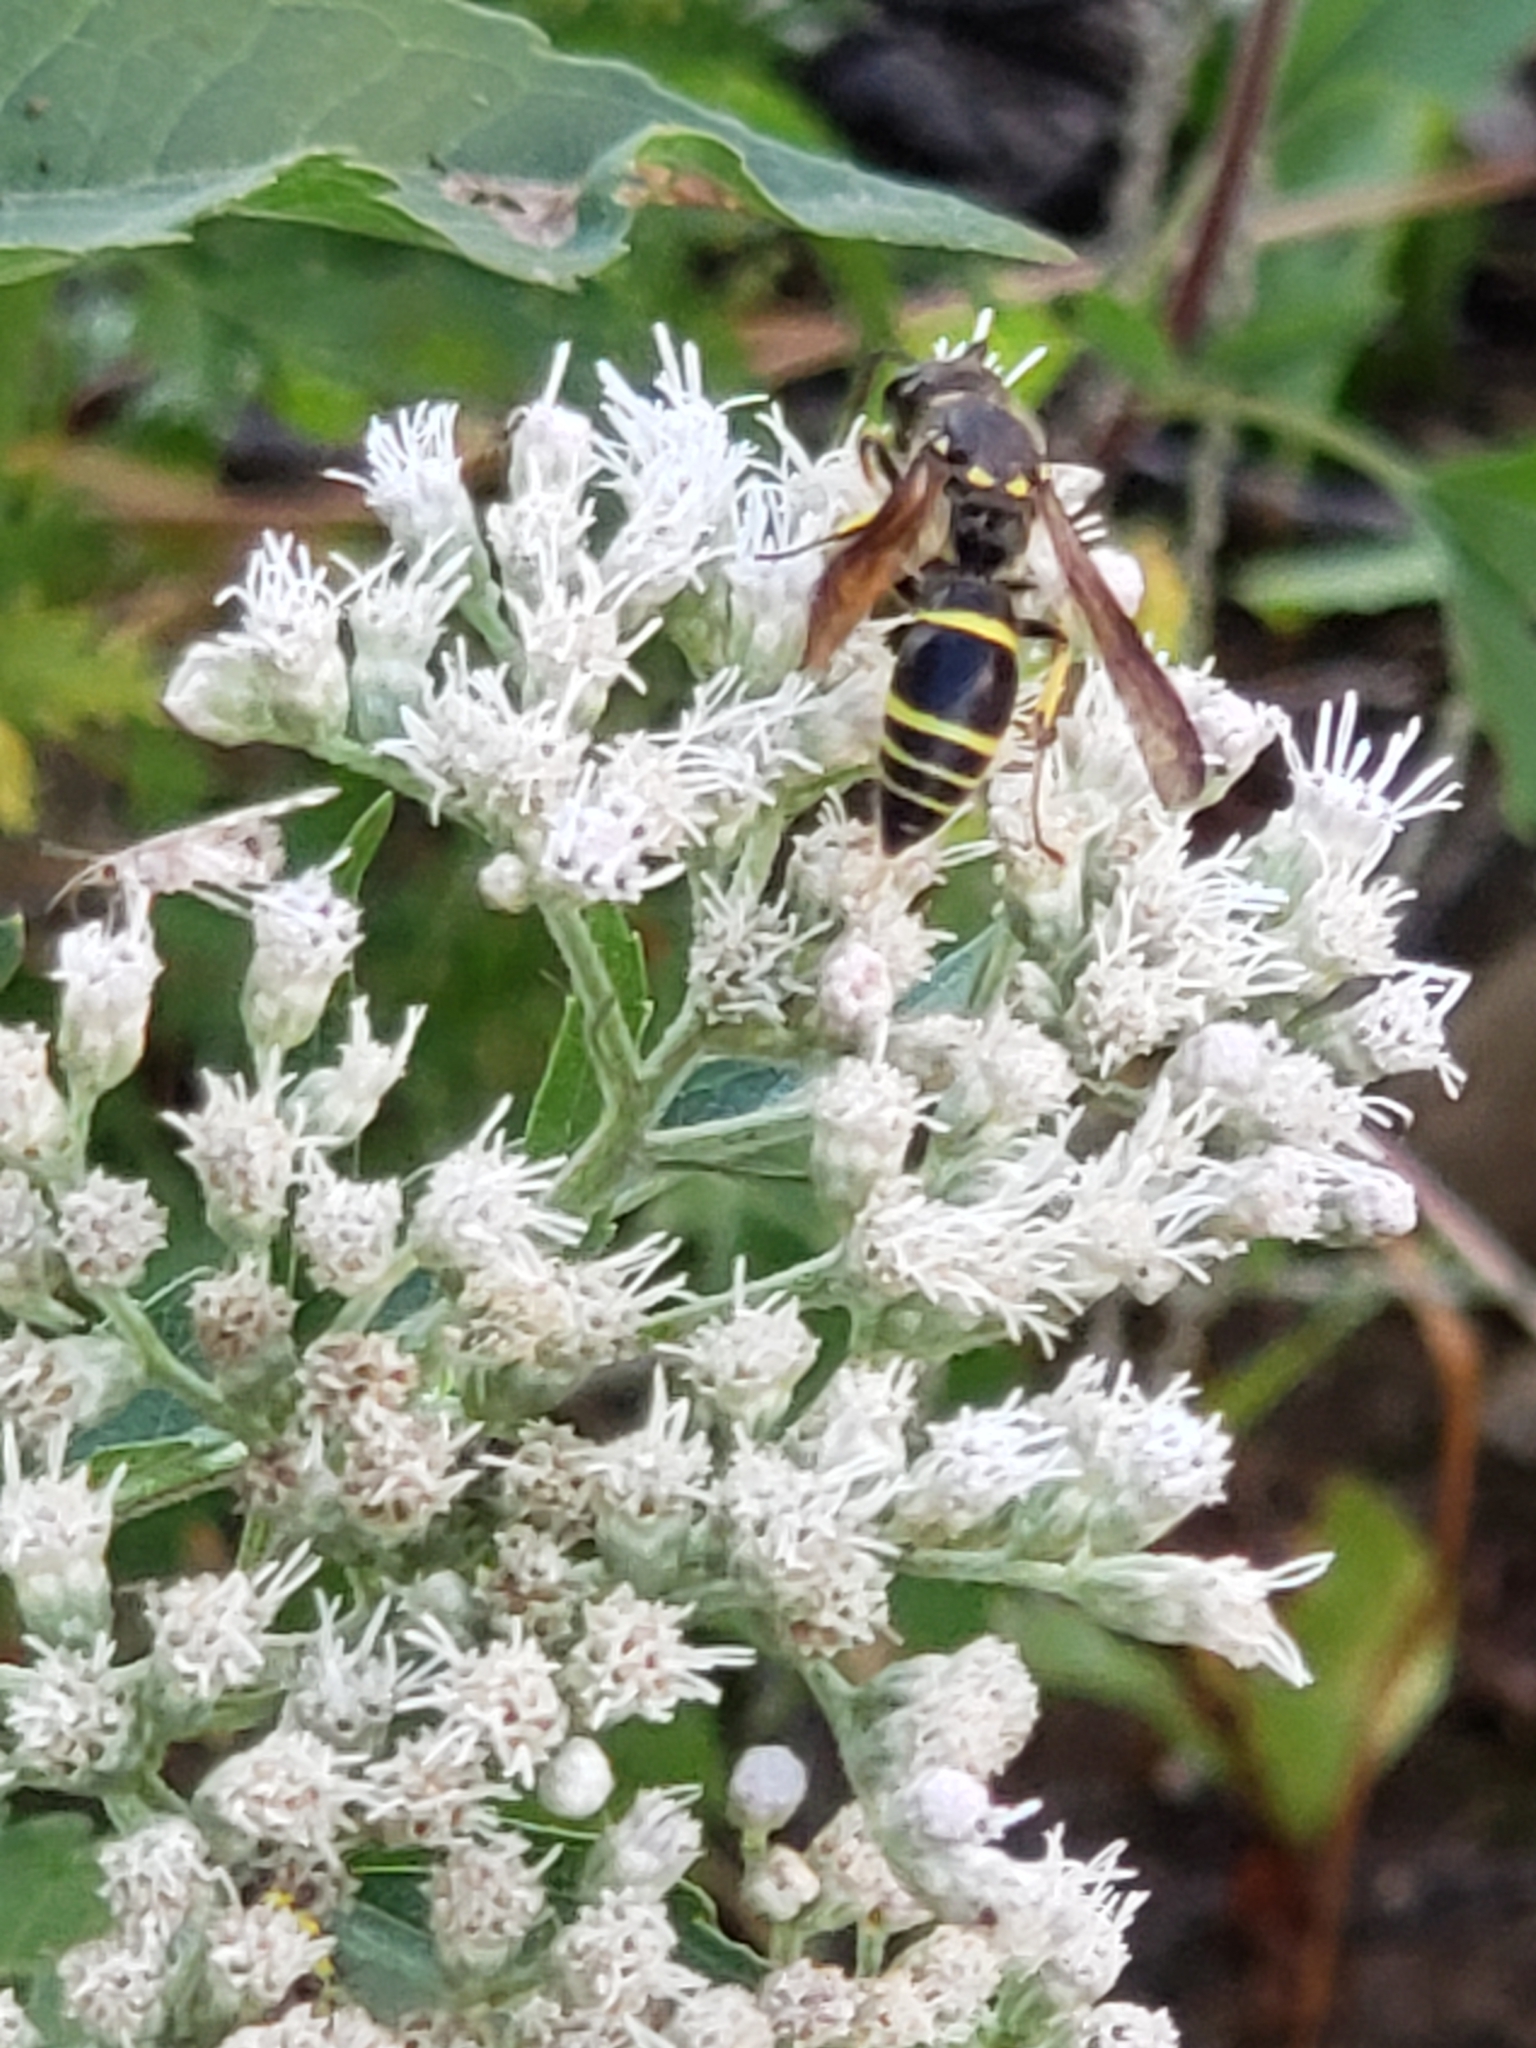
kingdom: Animalia
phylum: Arthropoda
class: Insecta
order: Hymenoptera
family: Vespidae
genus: Ancistrocerus
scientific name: Ancistrocerus
